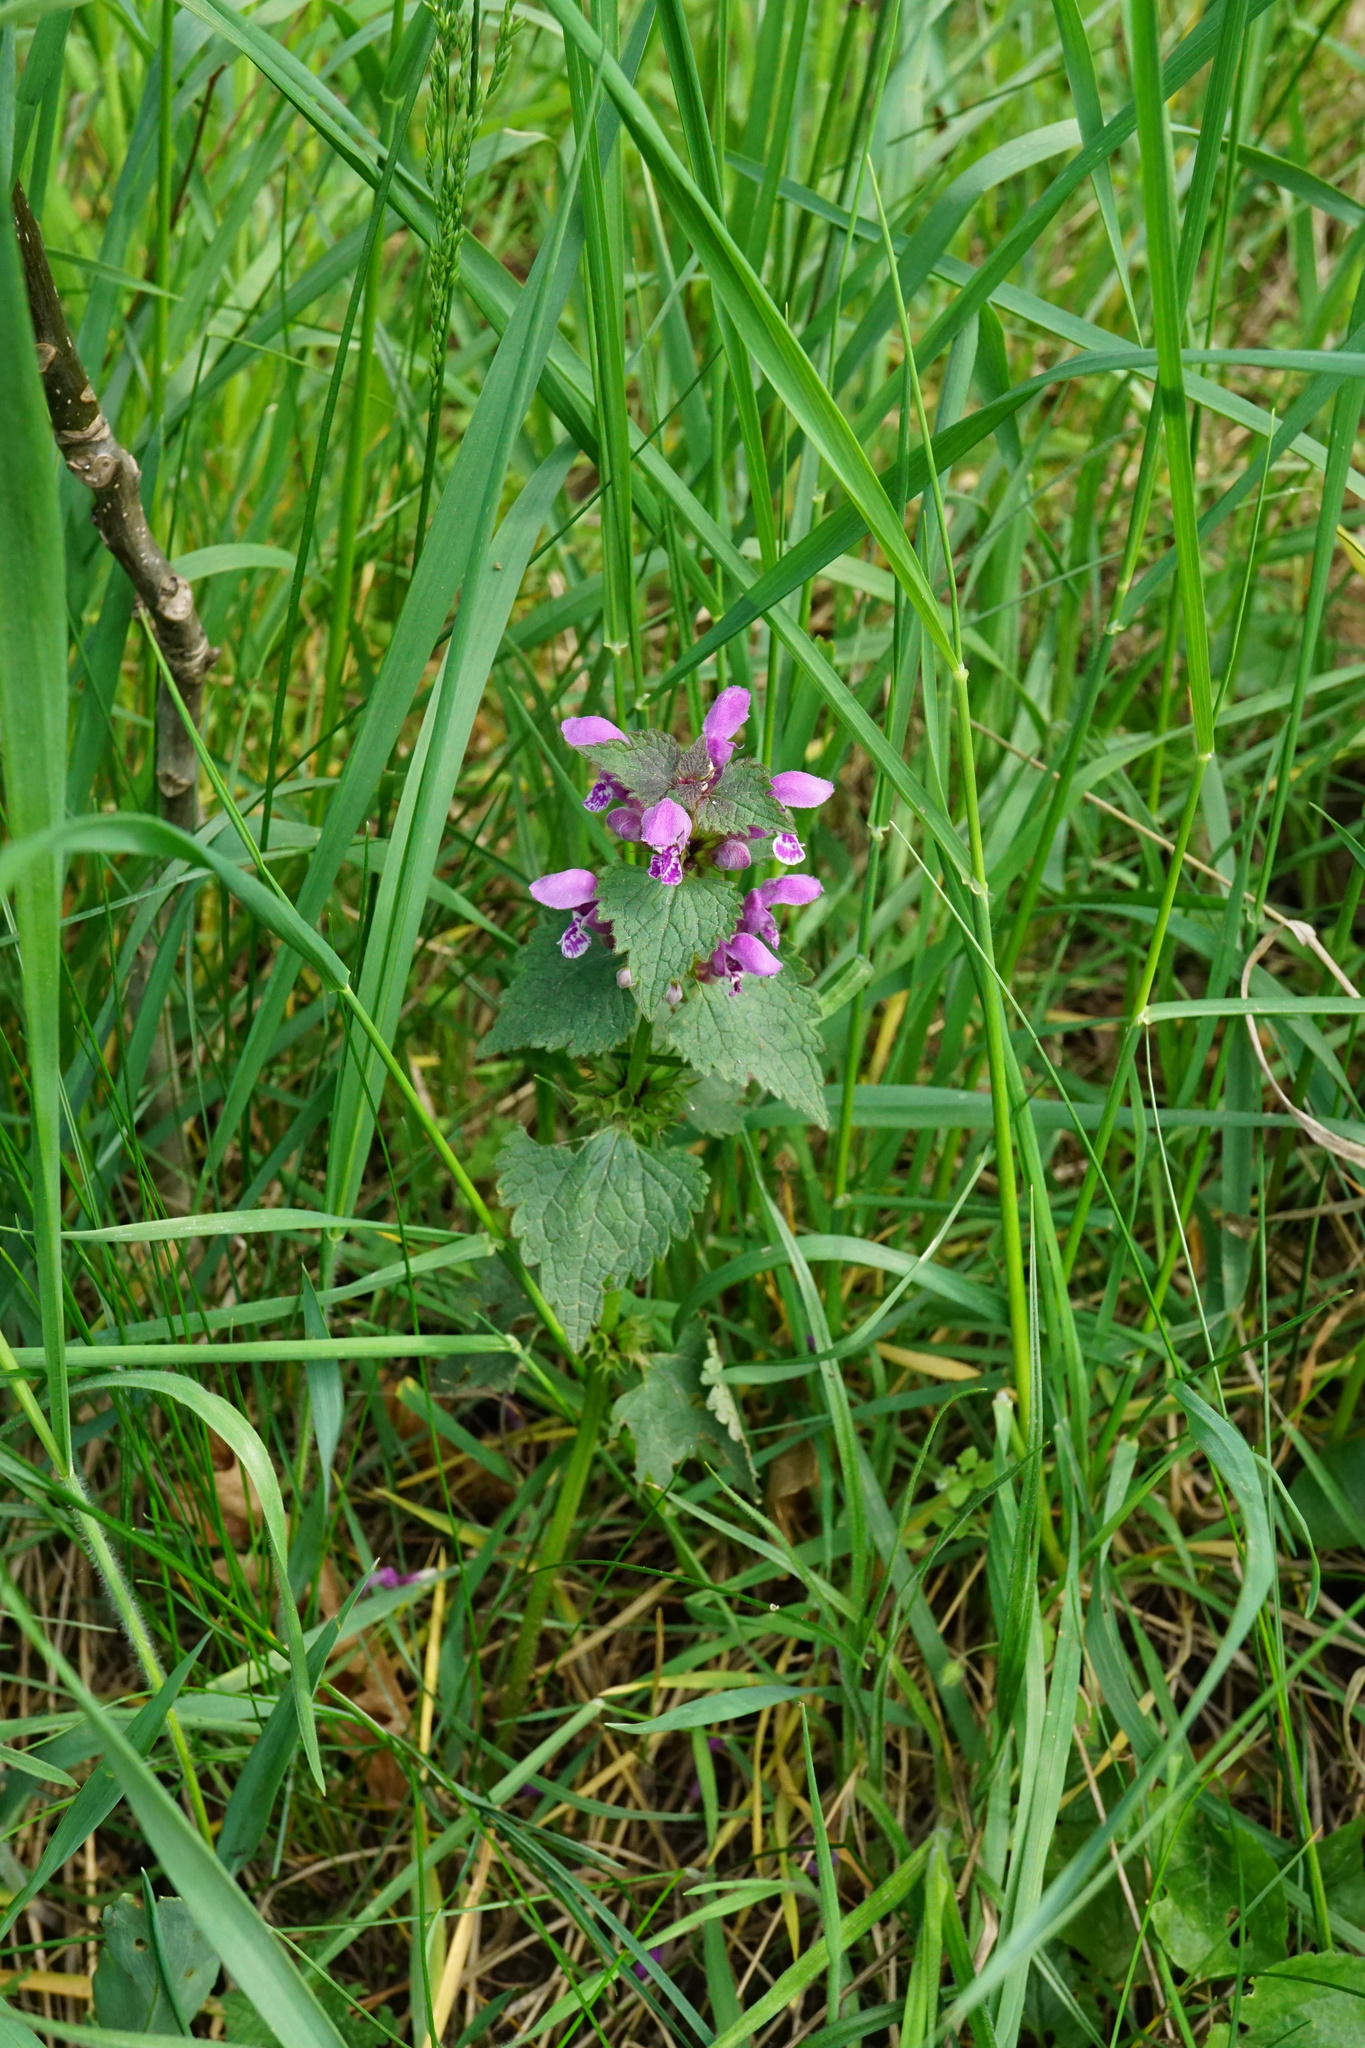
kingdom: Plantae
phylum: Tracheophyta
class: Magnoliopsida
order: Lamiales
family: Lamiaceae
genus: Lamium
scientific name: Lamium maculatum
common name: Spotted dead-nettle
